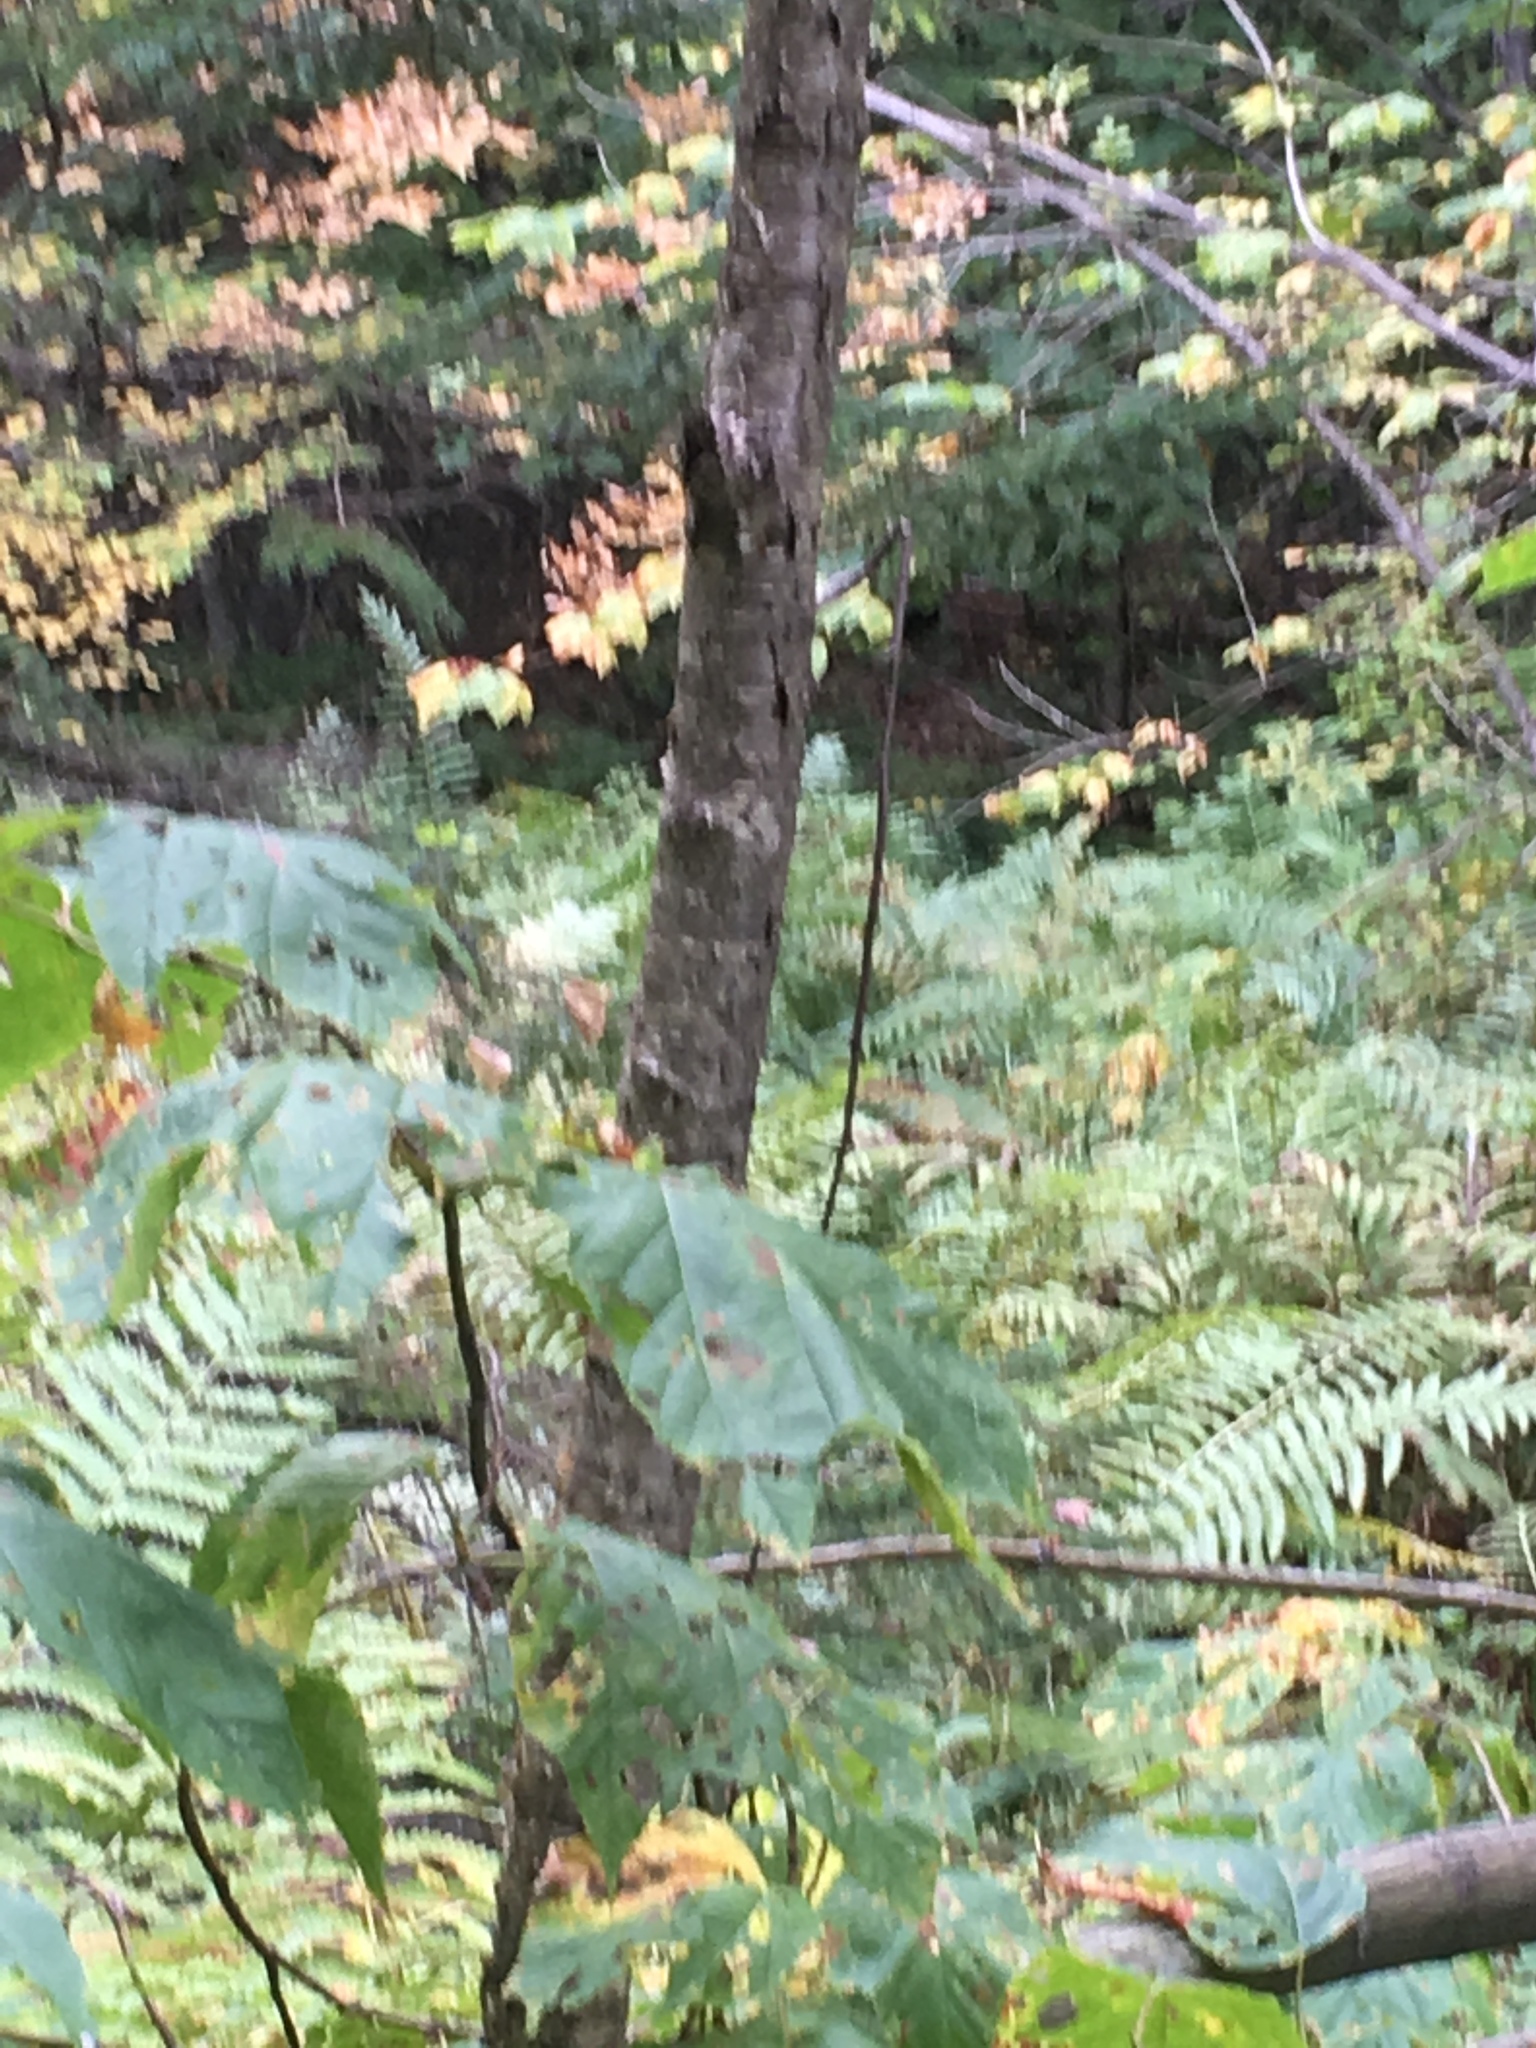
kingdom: Plantae
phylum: Tracheophyta
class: Magnoliopsida
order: Fagales
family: Betulaceae
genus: Betula
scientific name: Betula alleghaniensis
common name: Yellow birch
